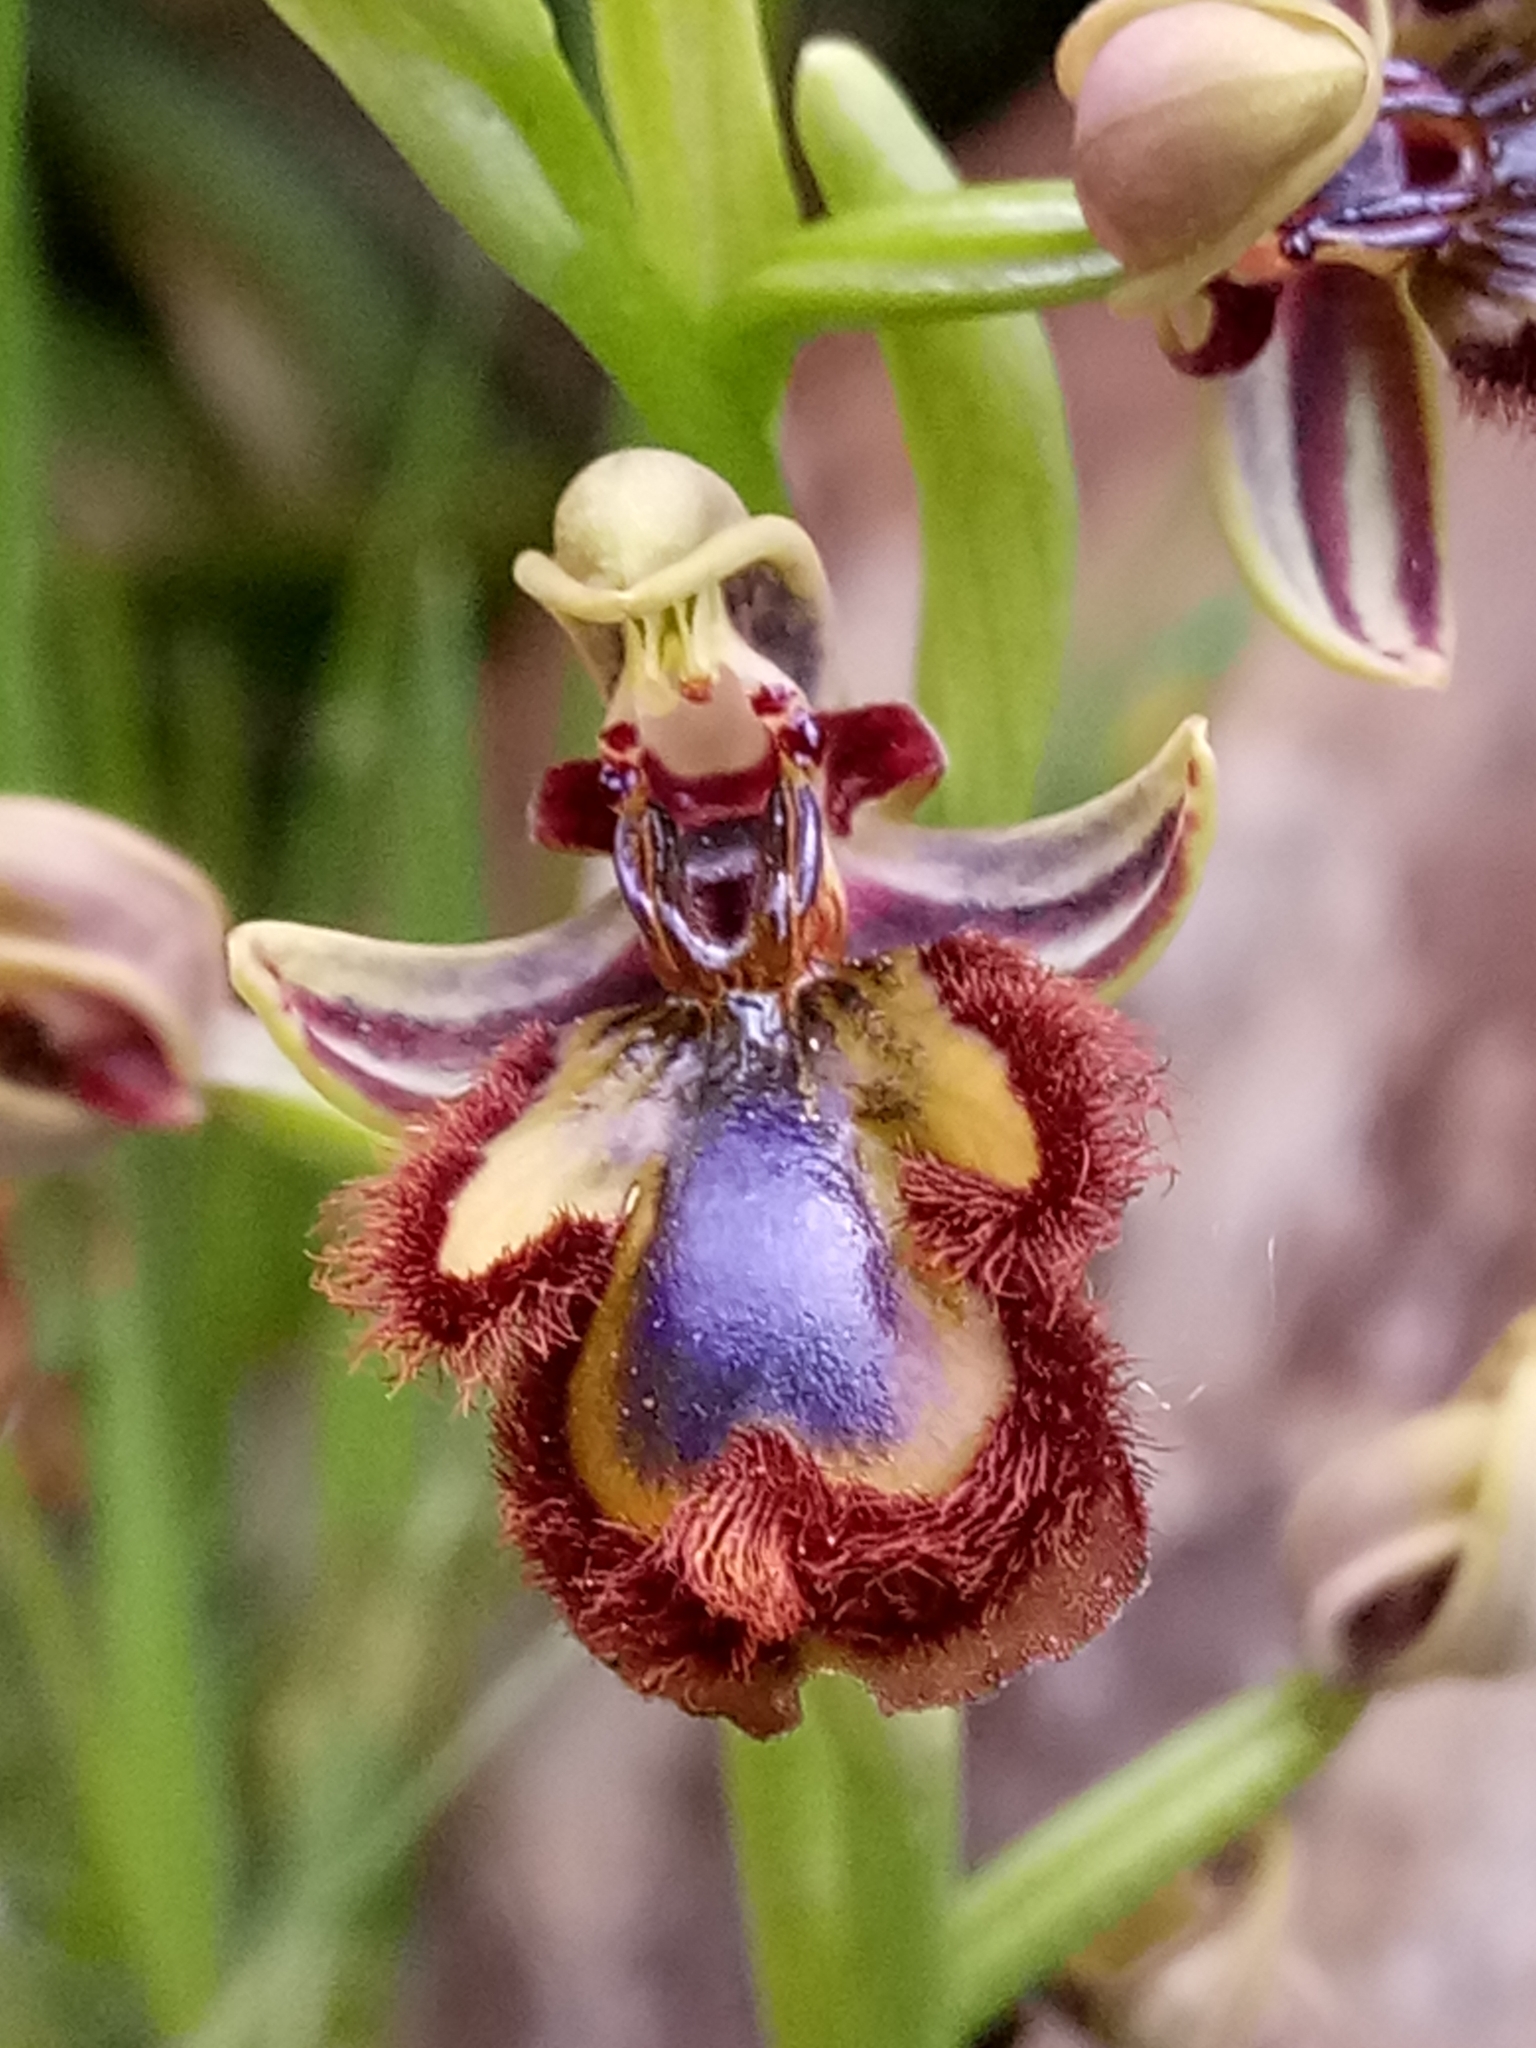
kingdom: Plantae
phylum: Tracheophyta
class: Liliopsida
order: Asparagales
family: Orchidaceae
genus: Ophrys
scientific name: Ophrys speculum
